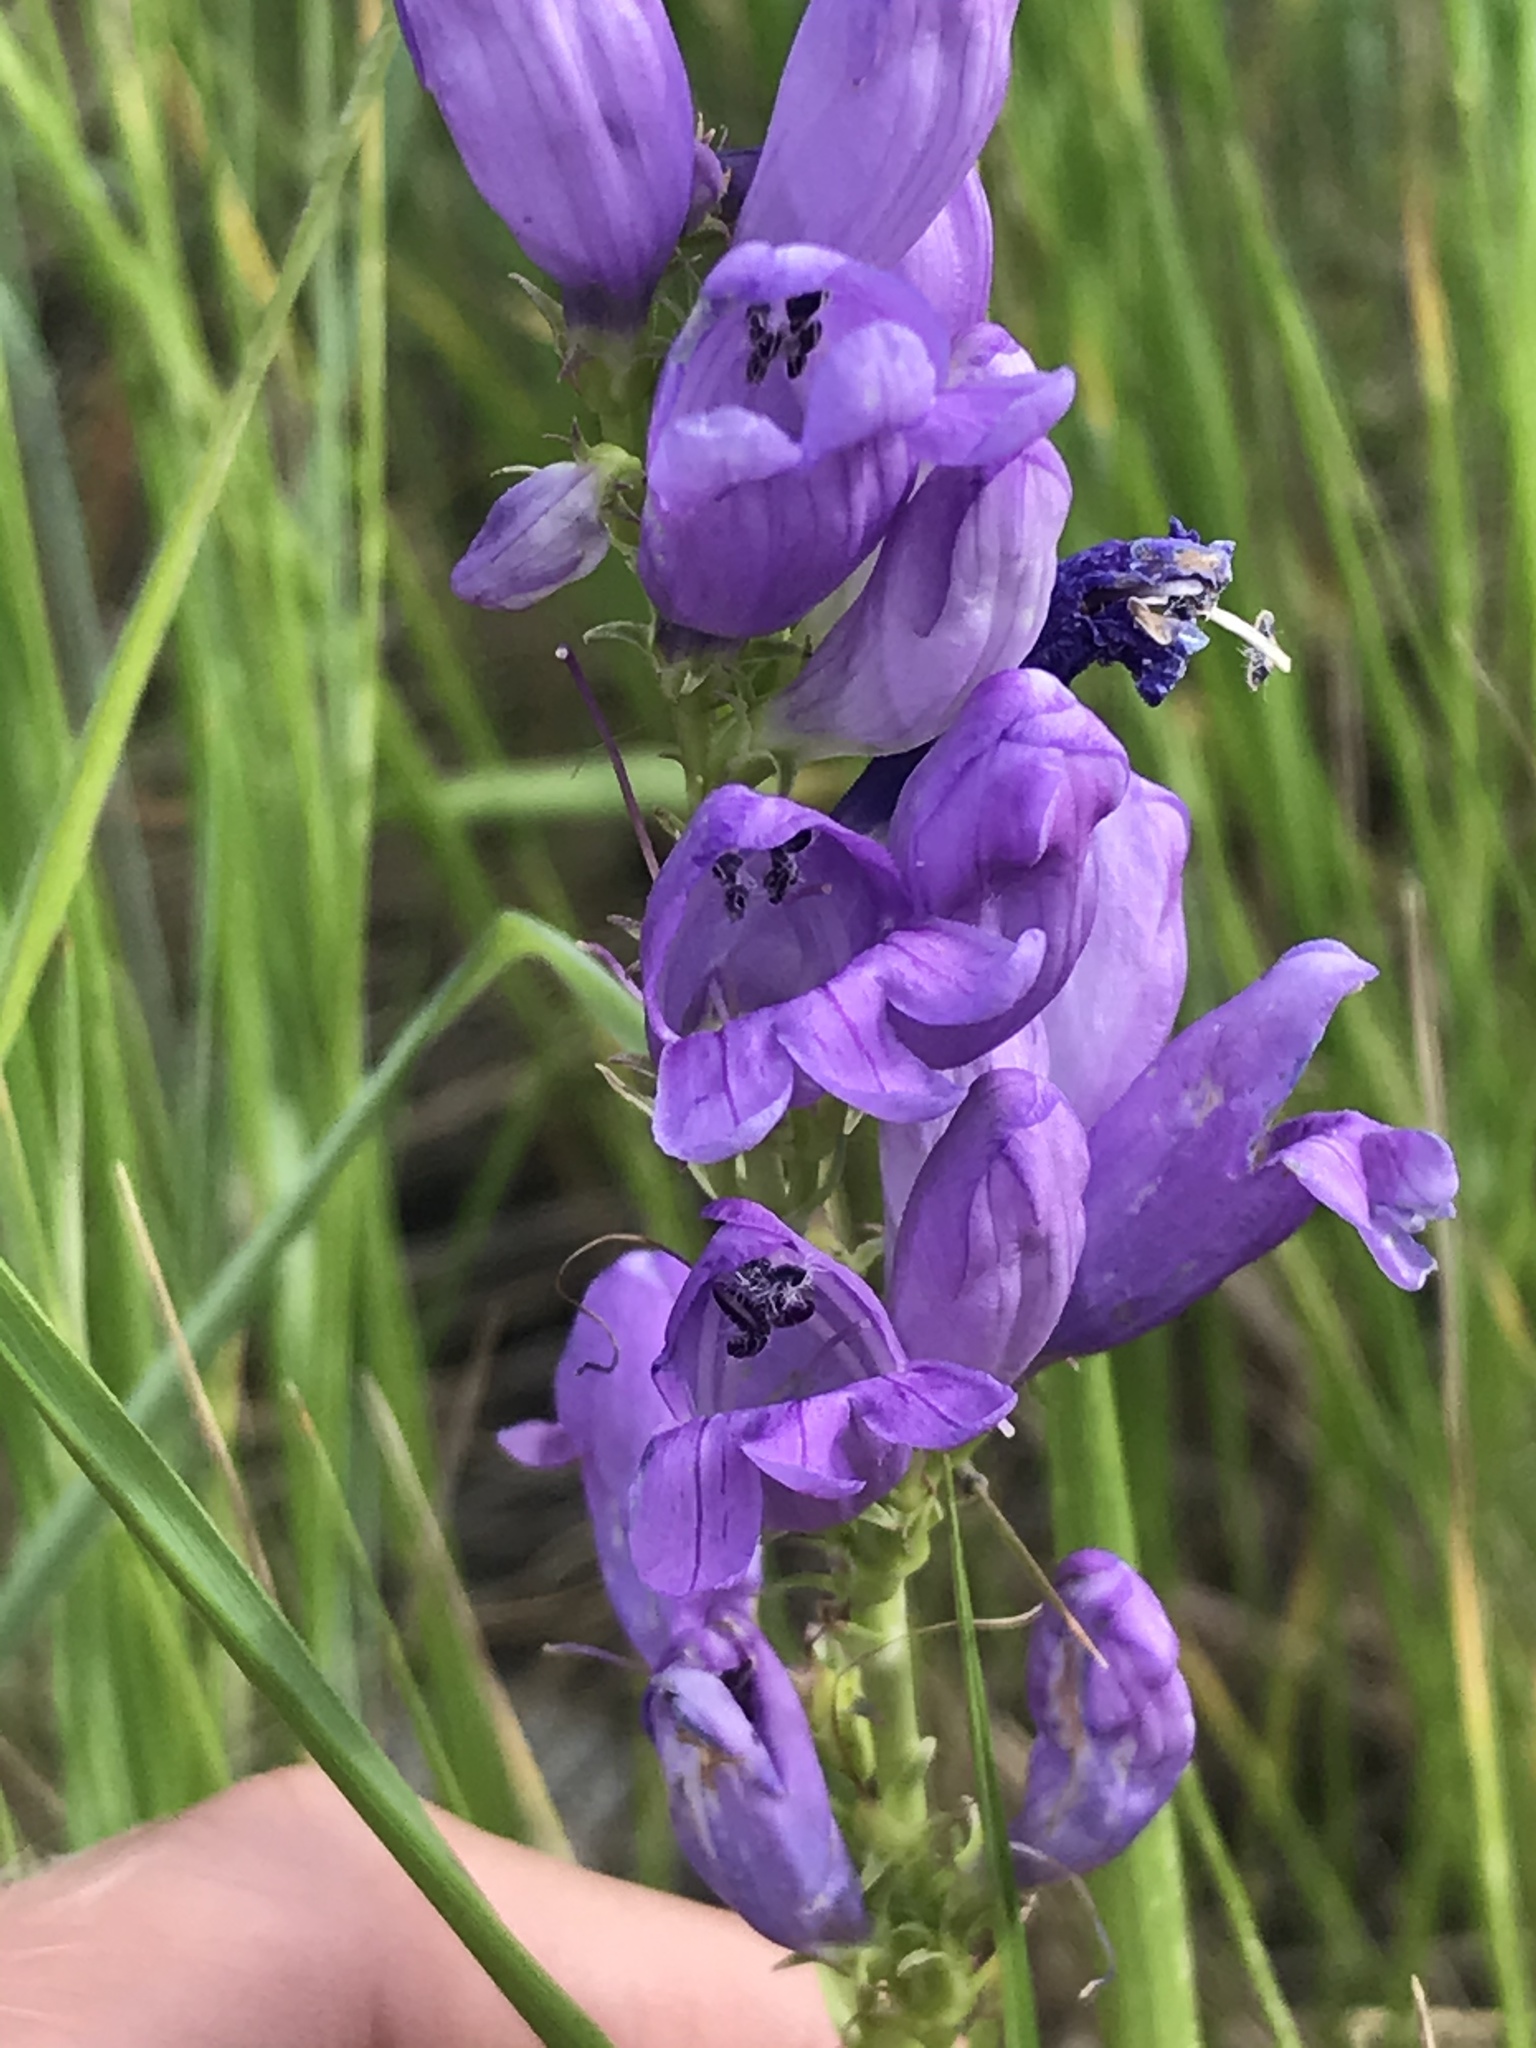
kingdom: Plantae
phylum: Tracheophyta
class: Magnoliopsida
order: Lamiales
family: Plantaginaceae
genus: Penstemon
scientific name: Penstemon strictus
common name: Rocky mountain penstemon
